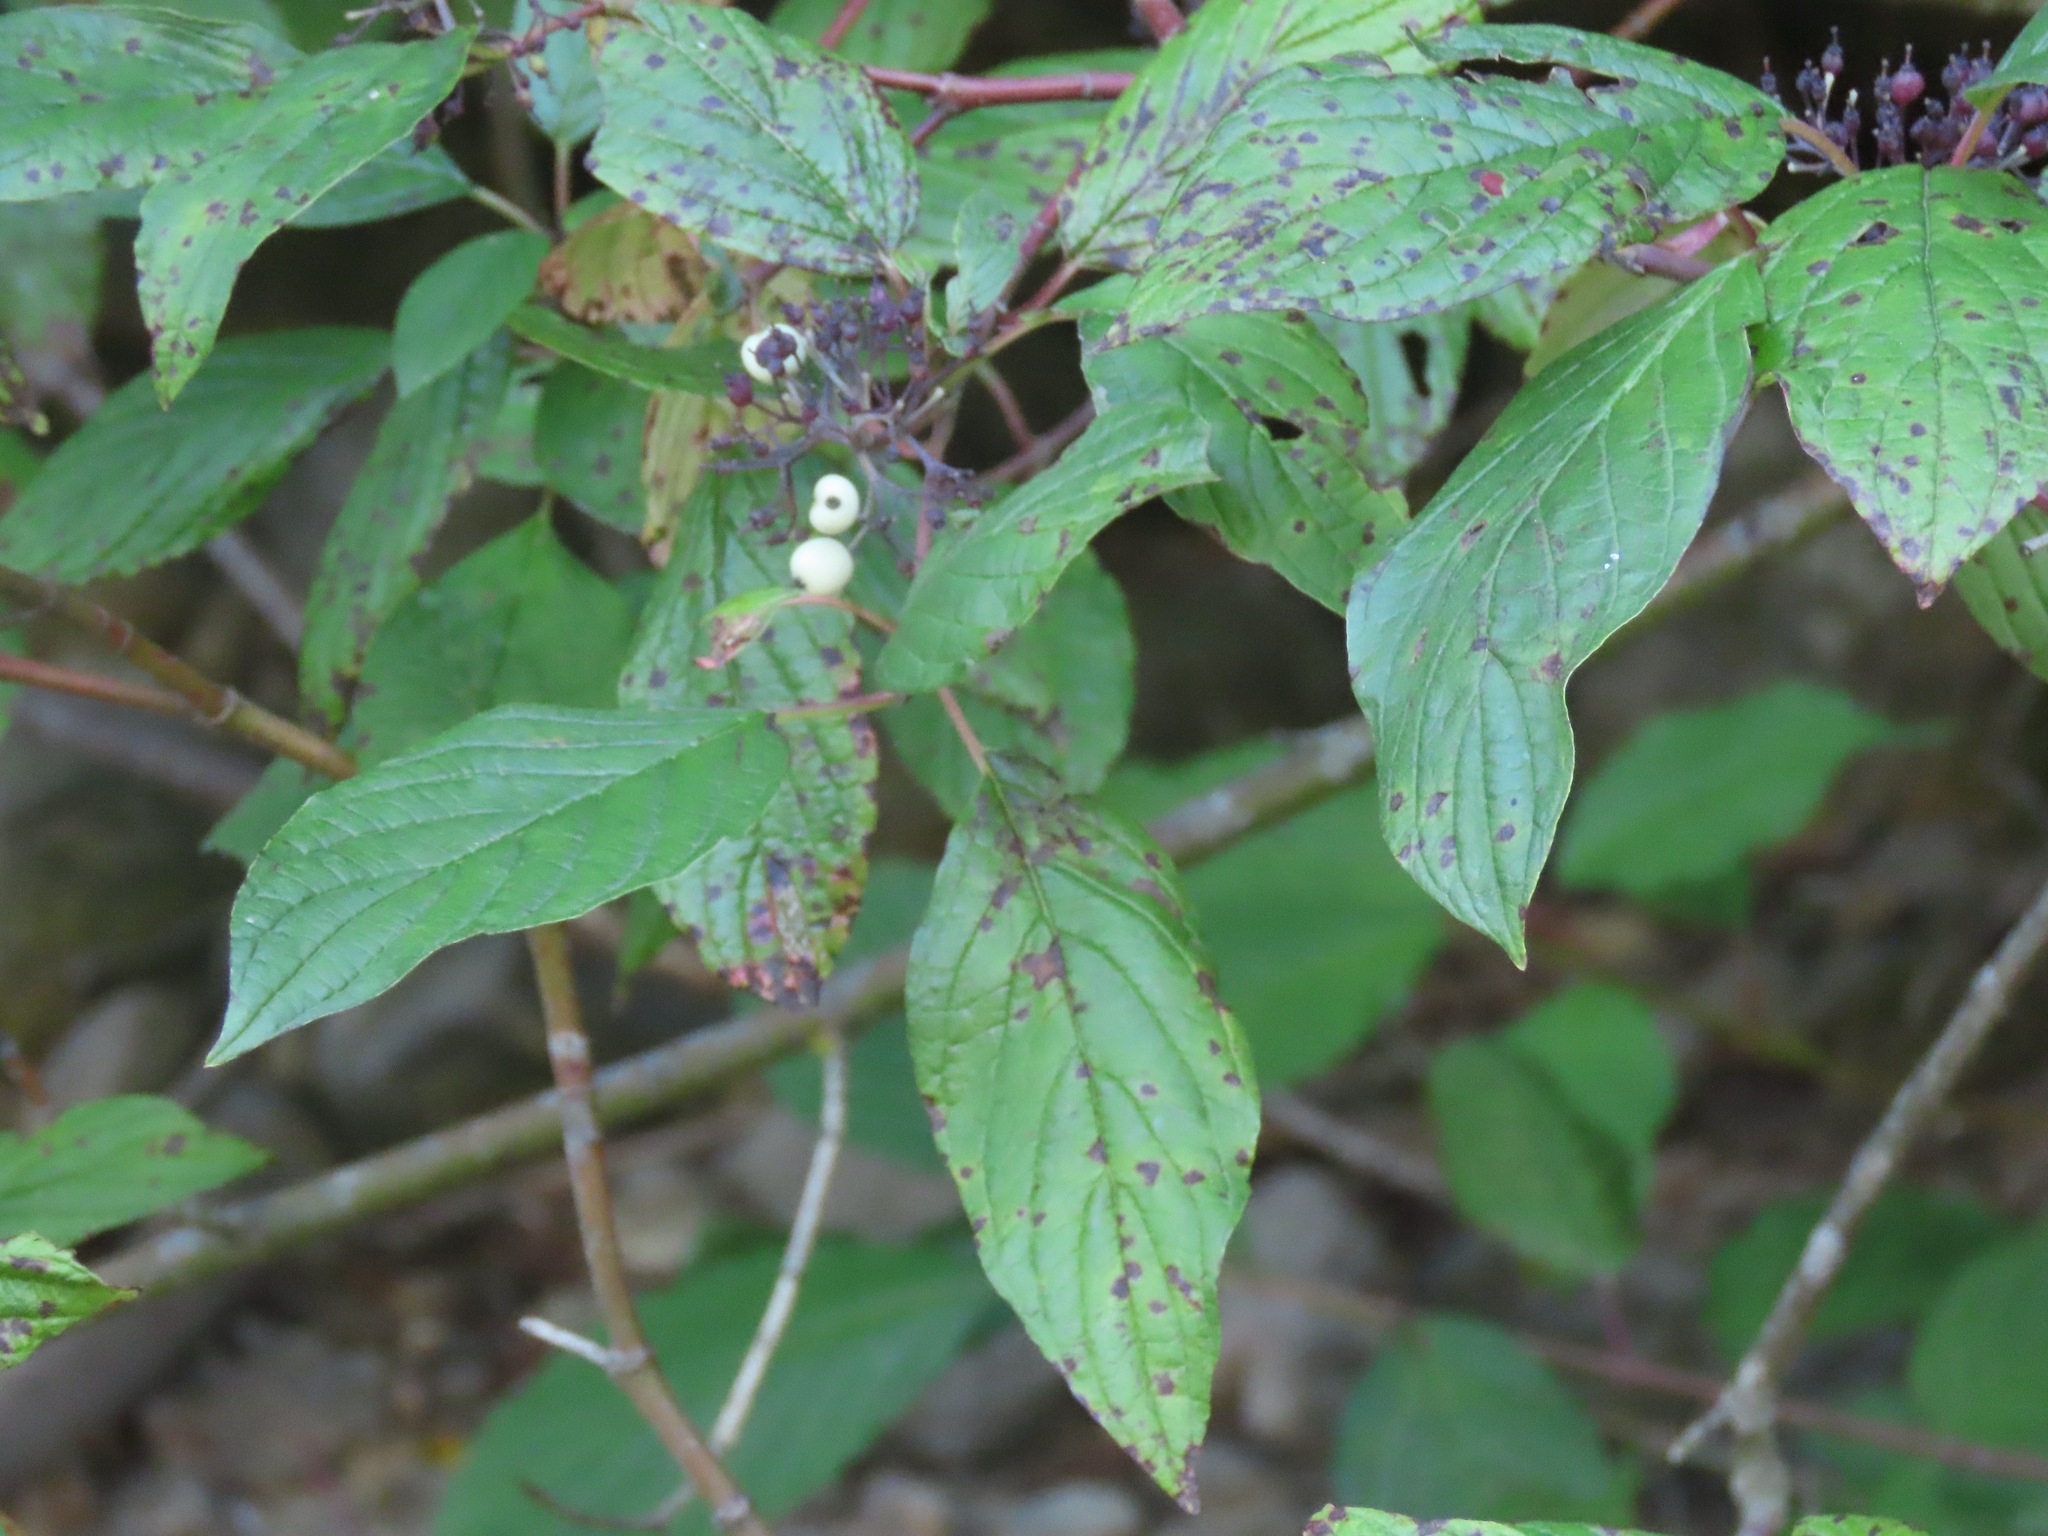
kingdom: Plantae
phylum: Tracheophyta
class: Magnoliopsida
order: Cornales
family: Cornaceae
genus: Cornus
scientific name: Cornus sericea
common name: Red-osier dogwood
